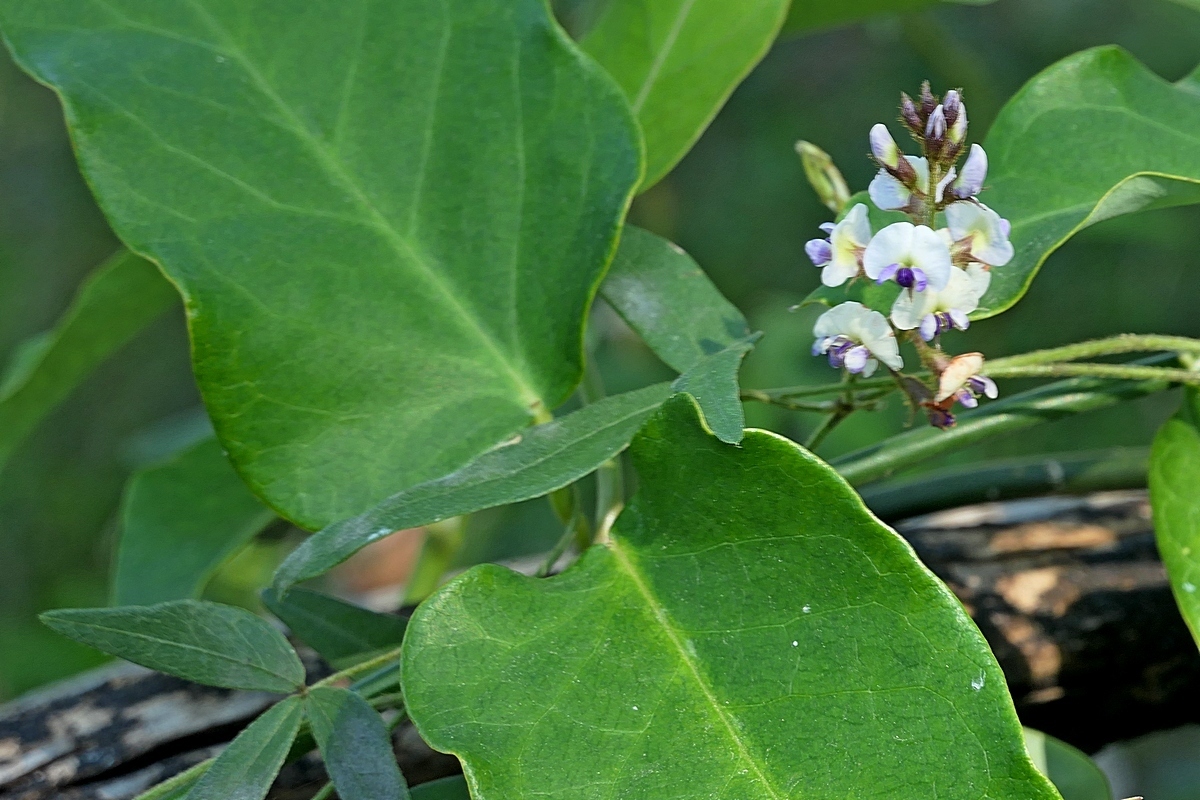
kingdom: Plantae
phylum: Tracheophyta
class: Magnoliopsida
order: Fabales
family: Fabaceae
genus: Glycine
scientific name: Glycine clandestina
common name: Twining glycine
